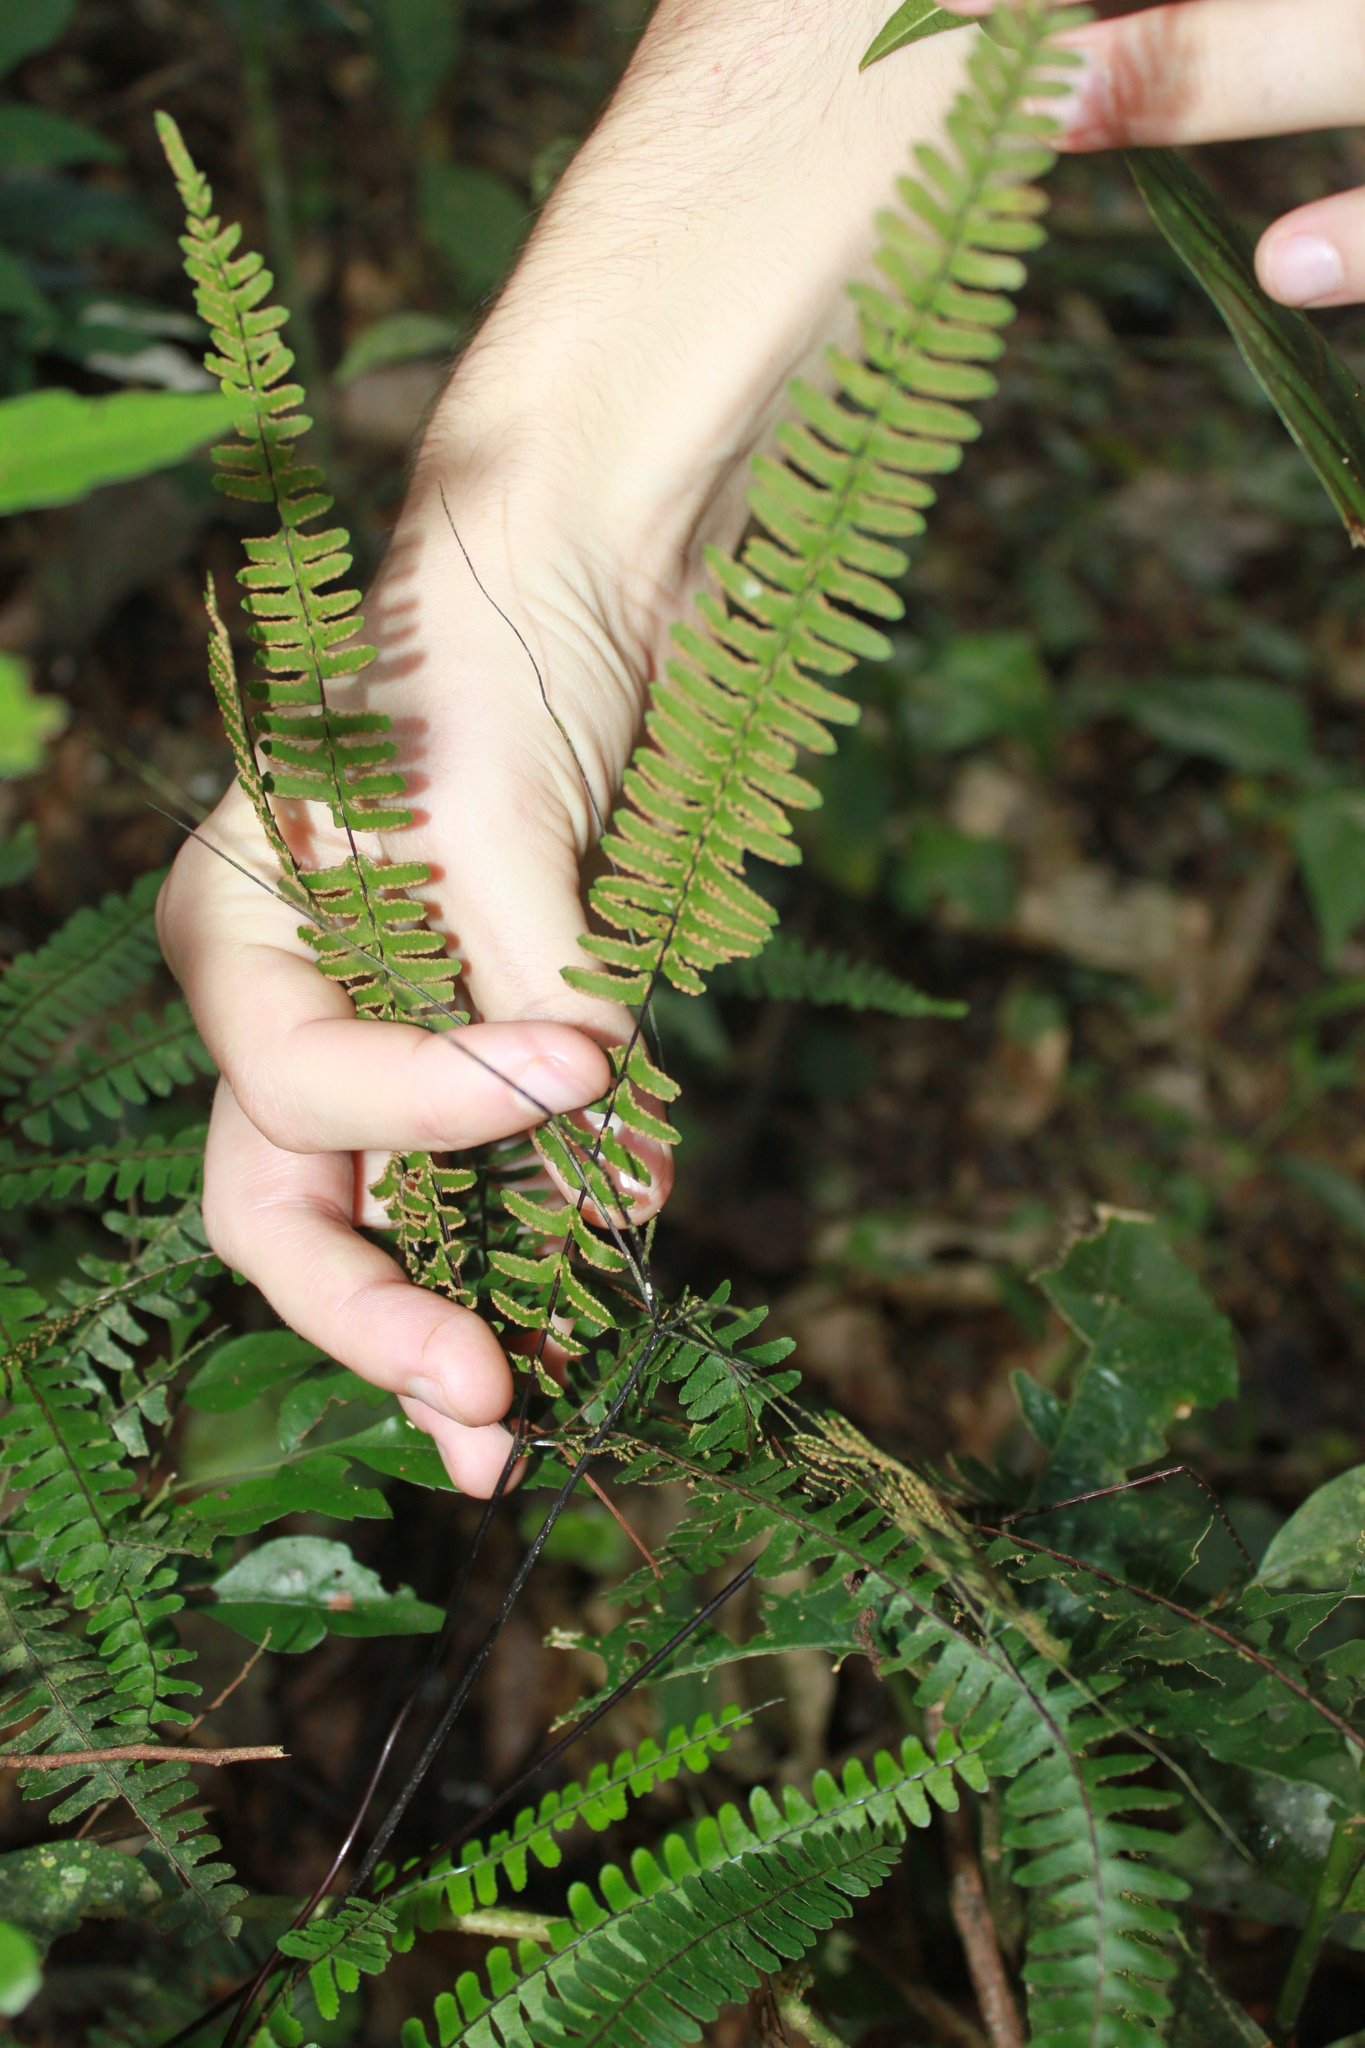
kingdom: Plantae
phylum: Tracheophyta
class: Polypodiopsida
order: Polypodiales
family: Pteridaceae
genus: Adiantopsis
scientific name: Adiantopsis radiata
